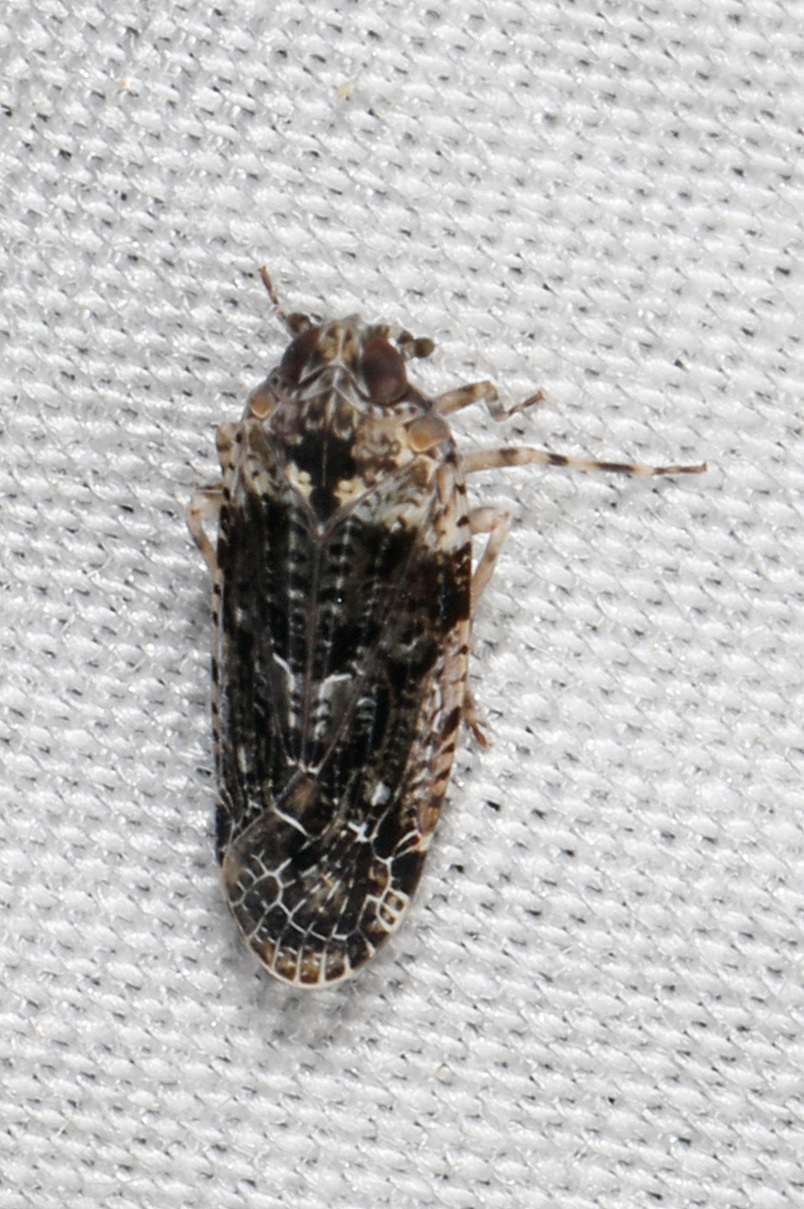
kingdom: Animalia
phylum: Arthropoda
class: Insecta
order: Hemiptera
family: Achilidae
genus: Catonia
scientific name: Catonia nava
